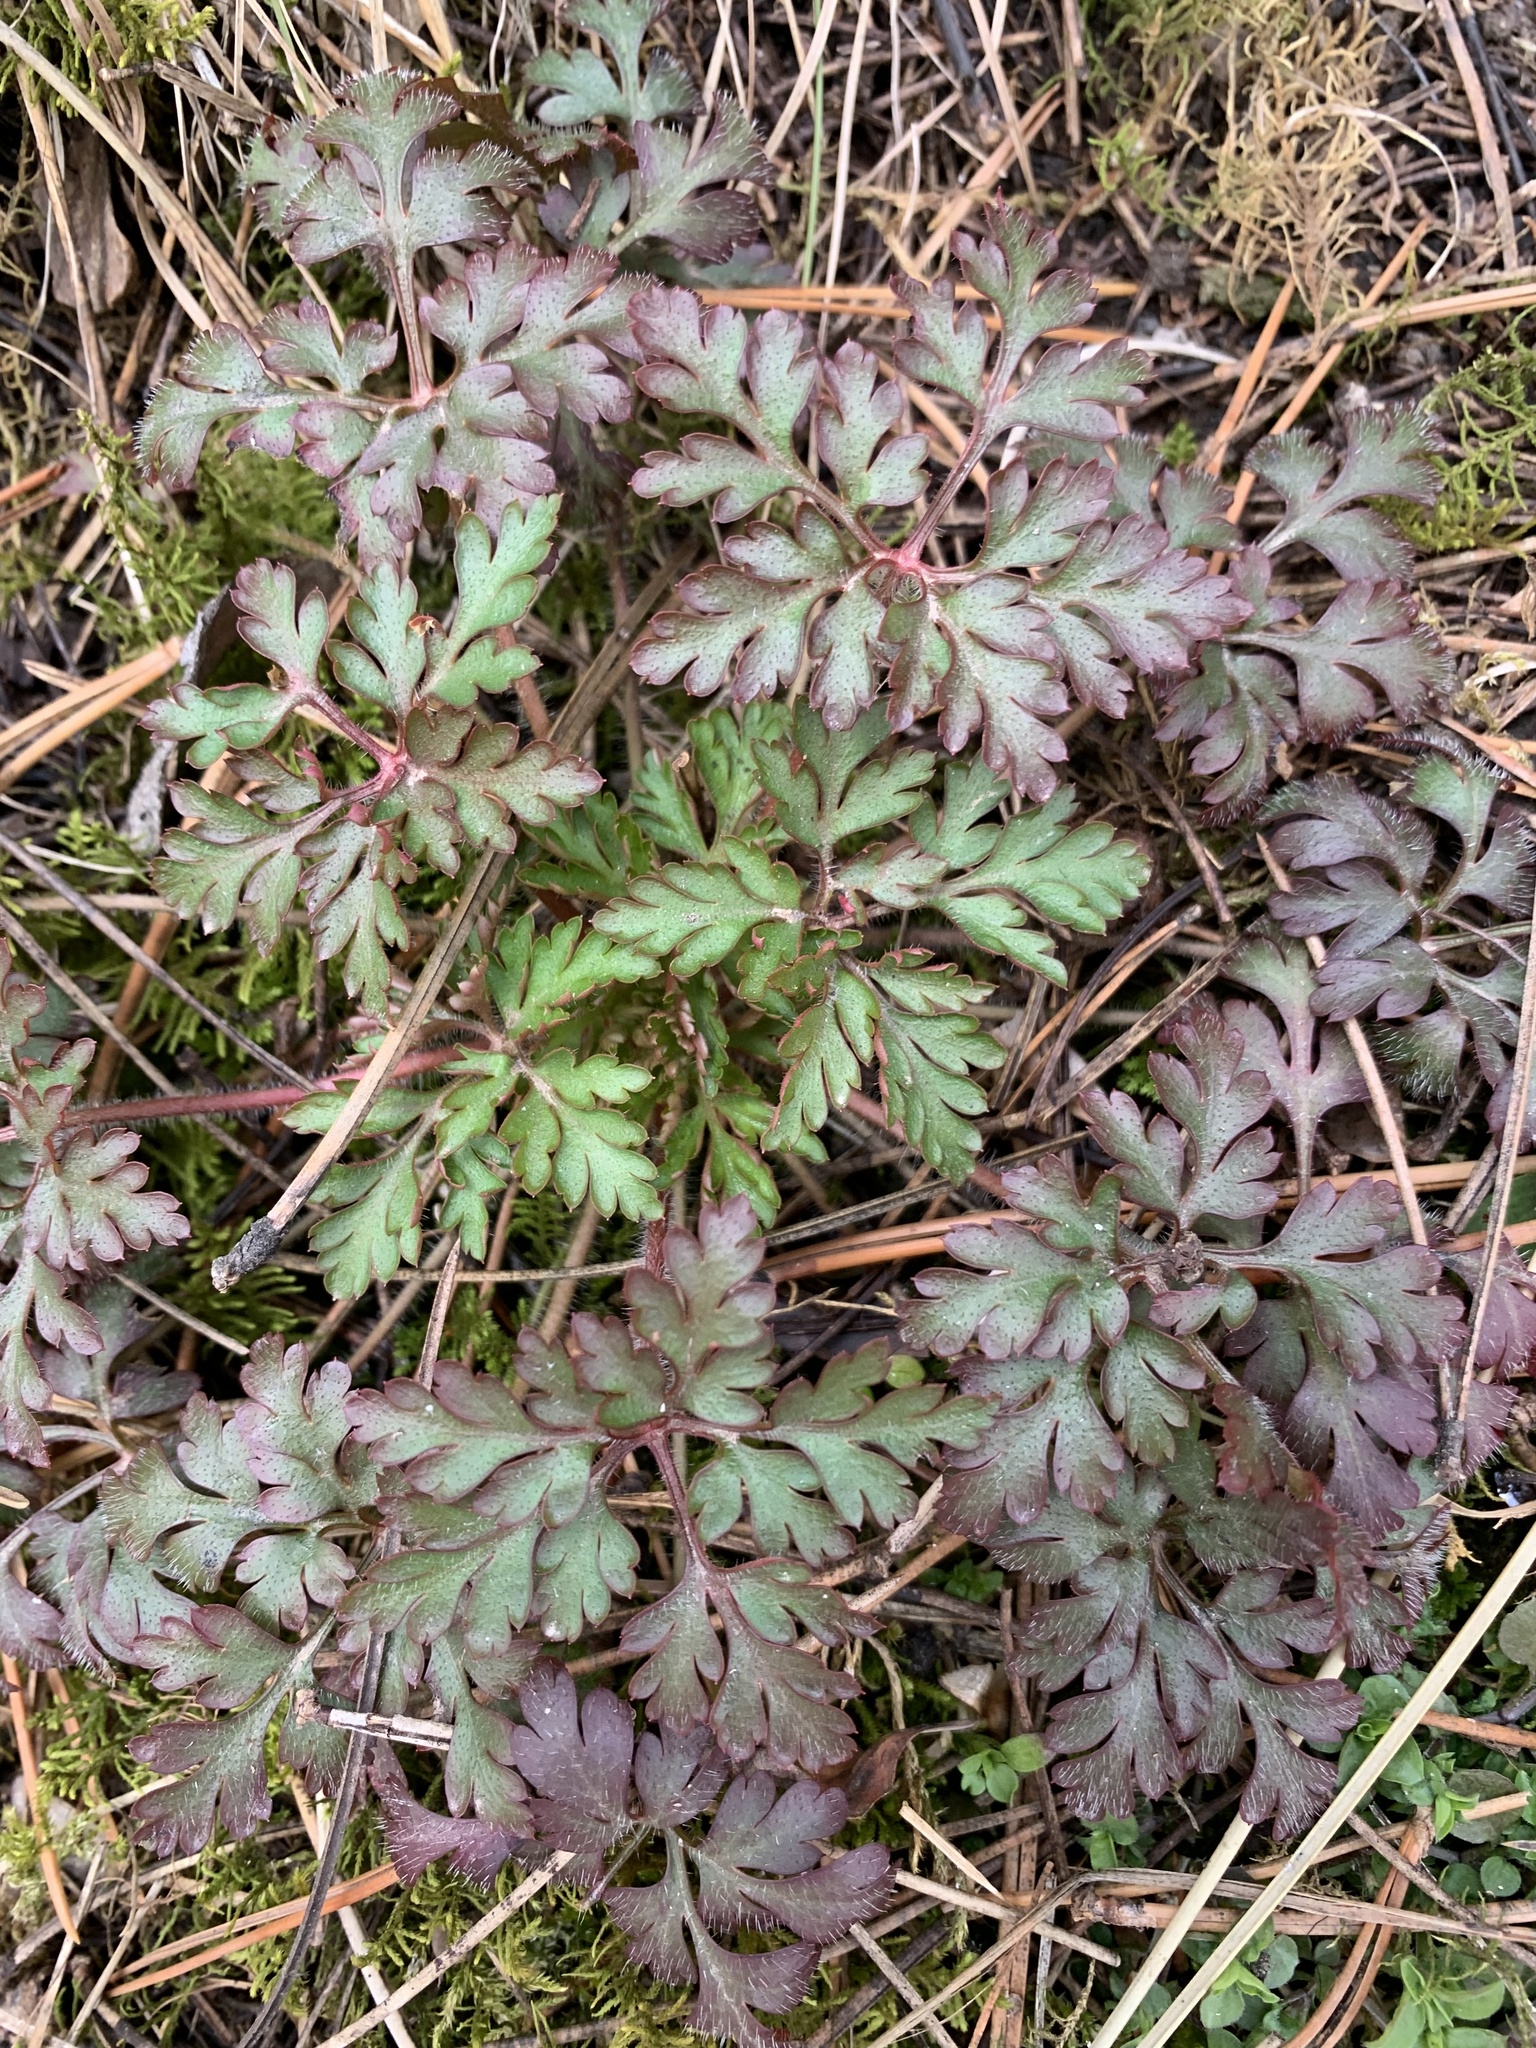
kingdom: Plantae
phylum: Tracheophyta
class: Magnoliopsida
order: Geraniales
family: Geraniaceae
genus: Geranium
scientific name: Geranium robertianum
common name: Herb-robert
